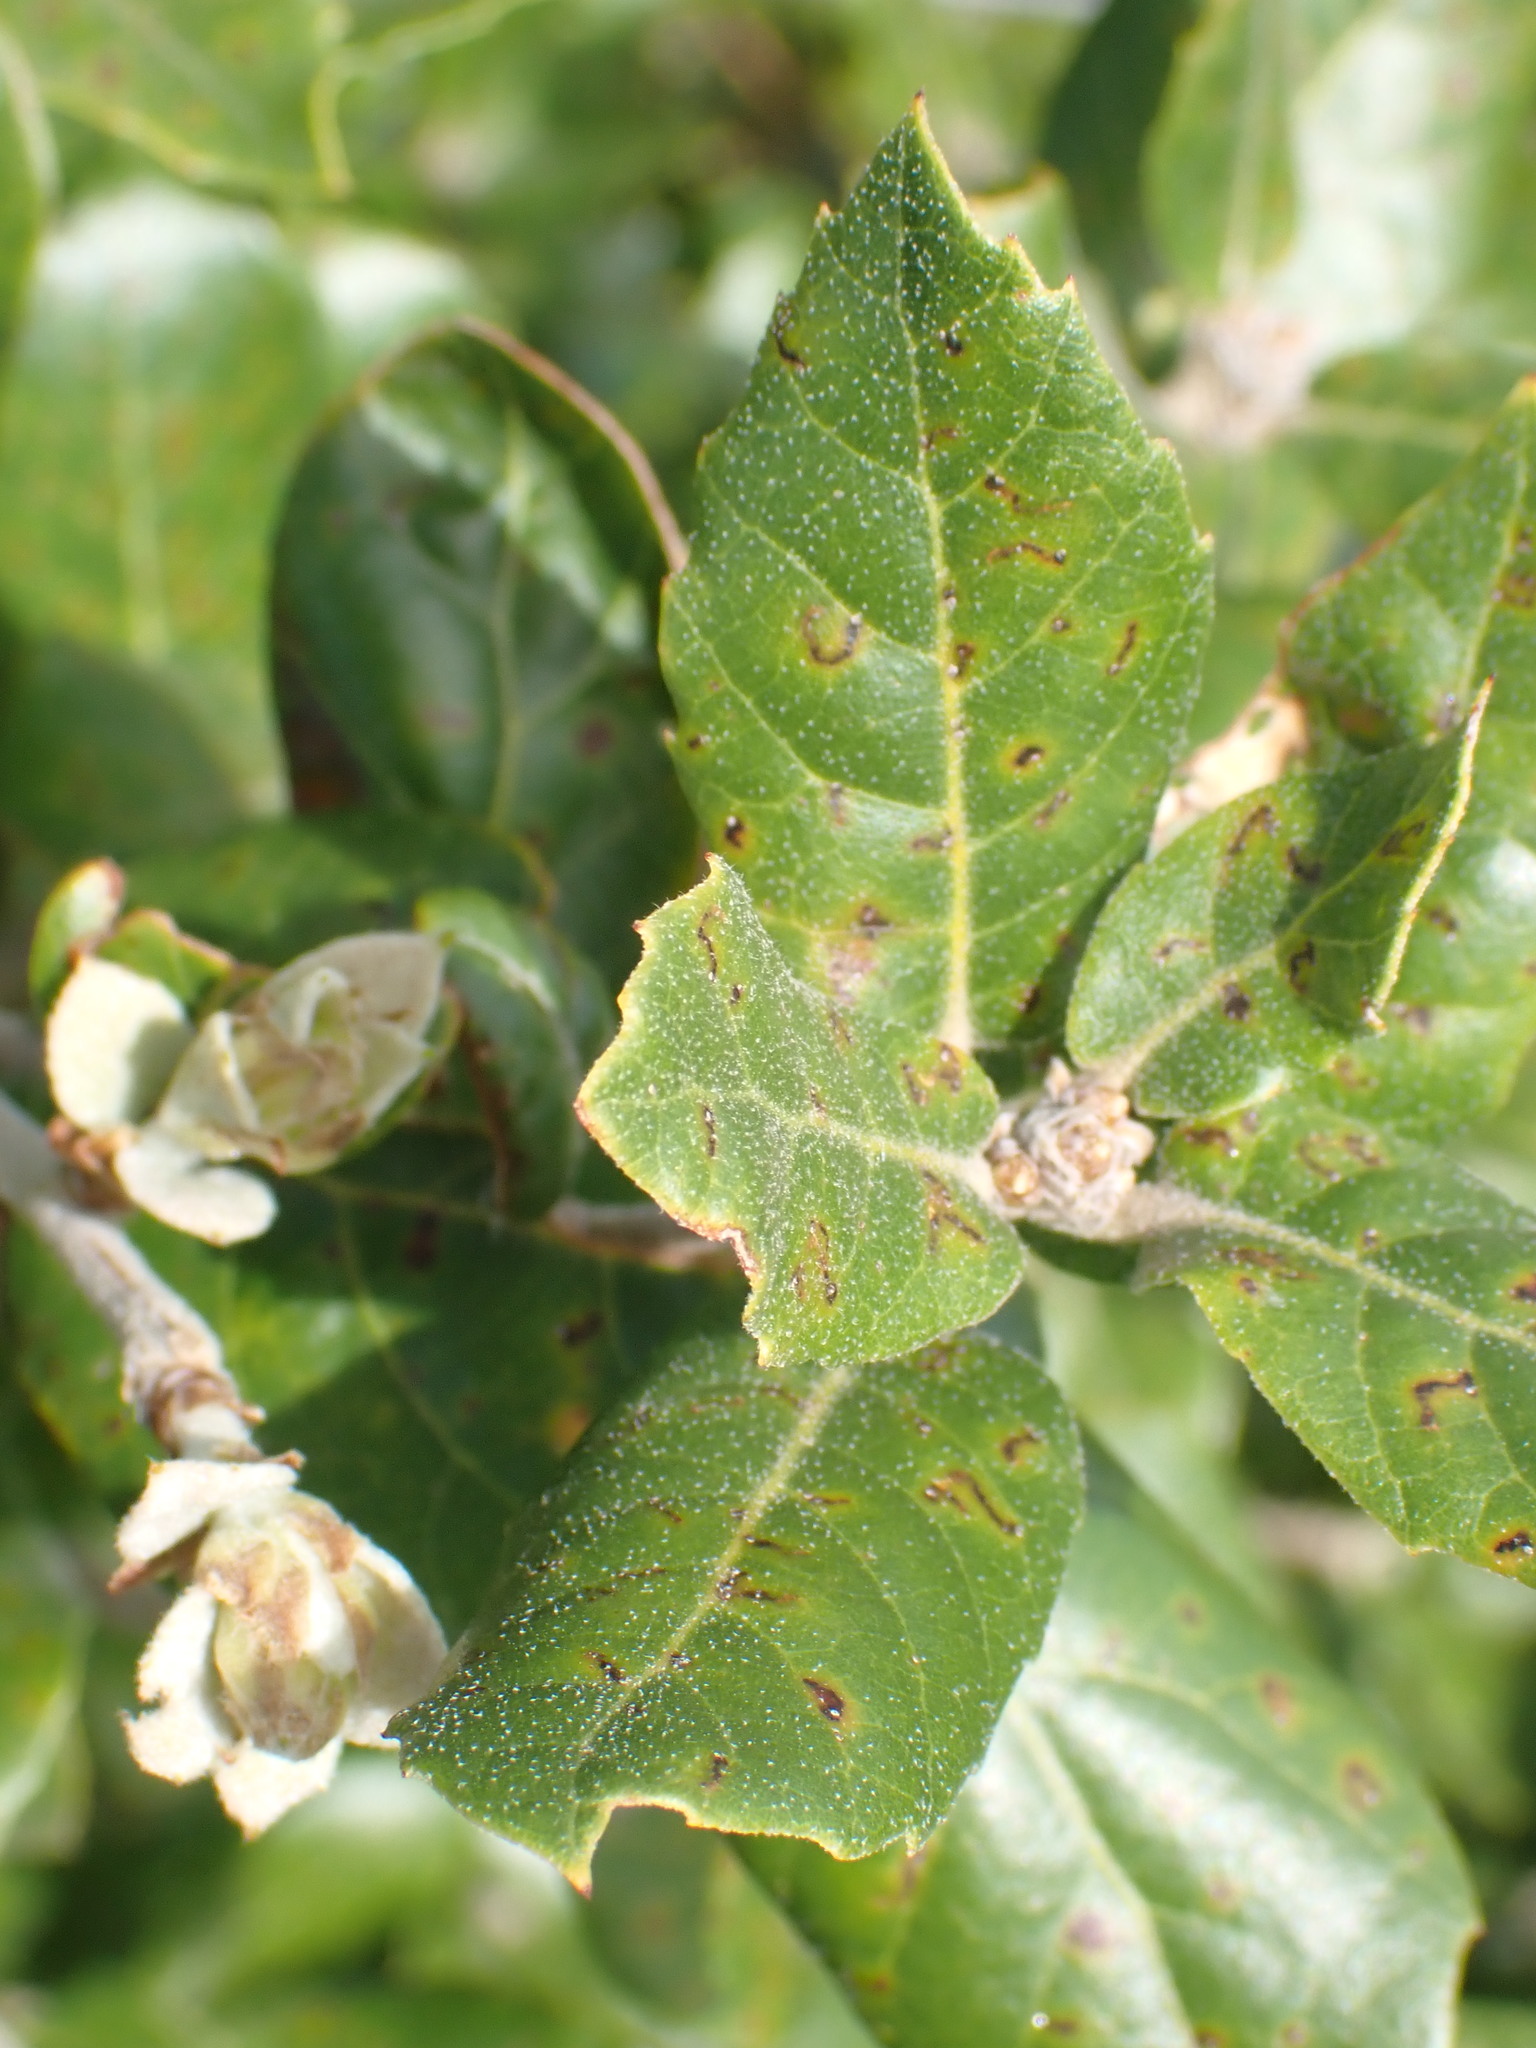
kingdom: Plantae
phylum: Tracheophyta
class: Magnoliopsida
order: Fagales
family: Fagaceae
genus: Quercus
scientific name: Quercus ilex
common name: Evergreen oak
